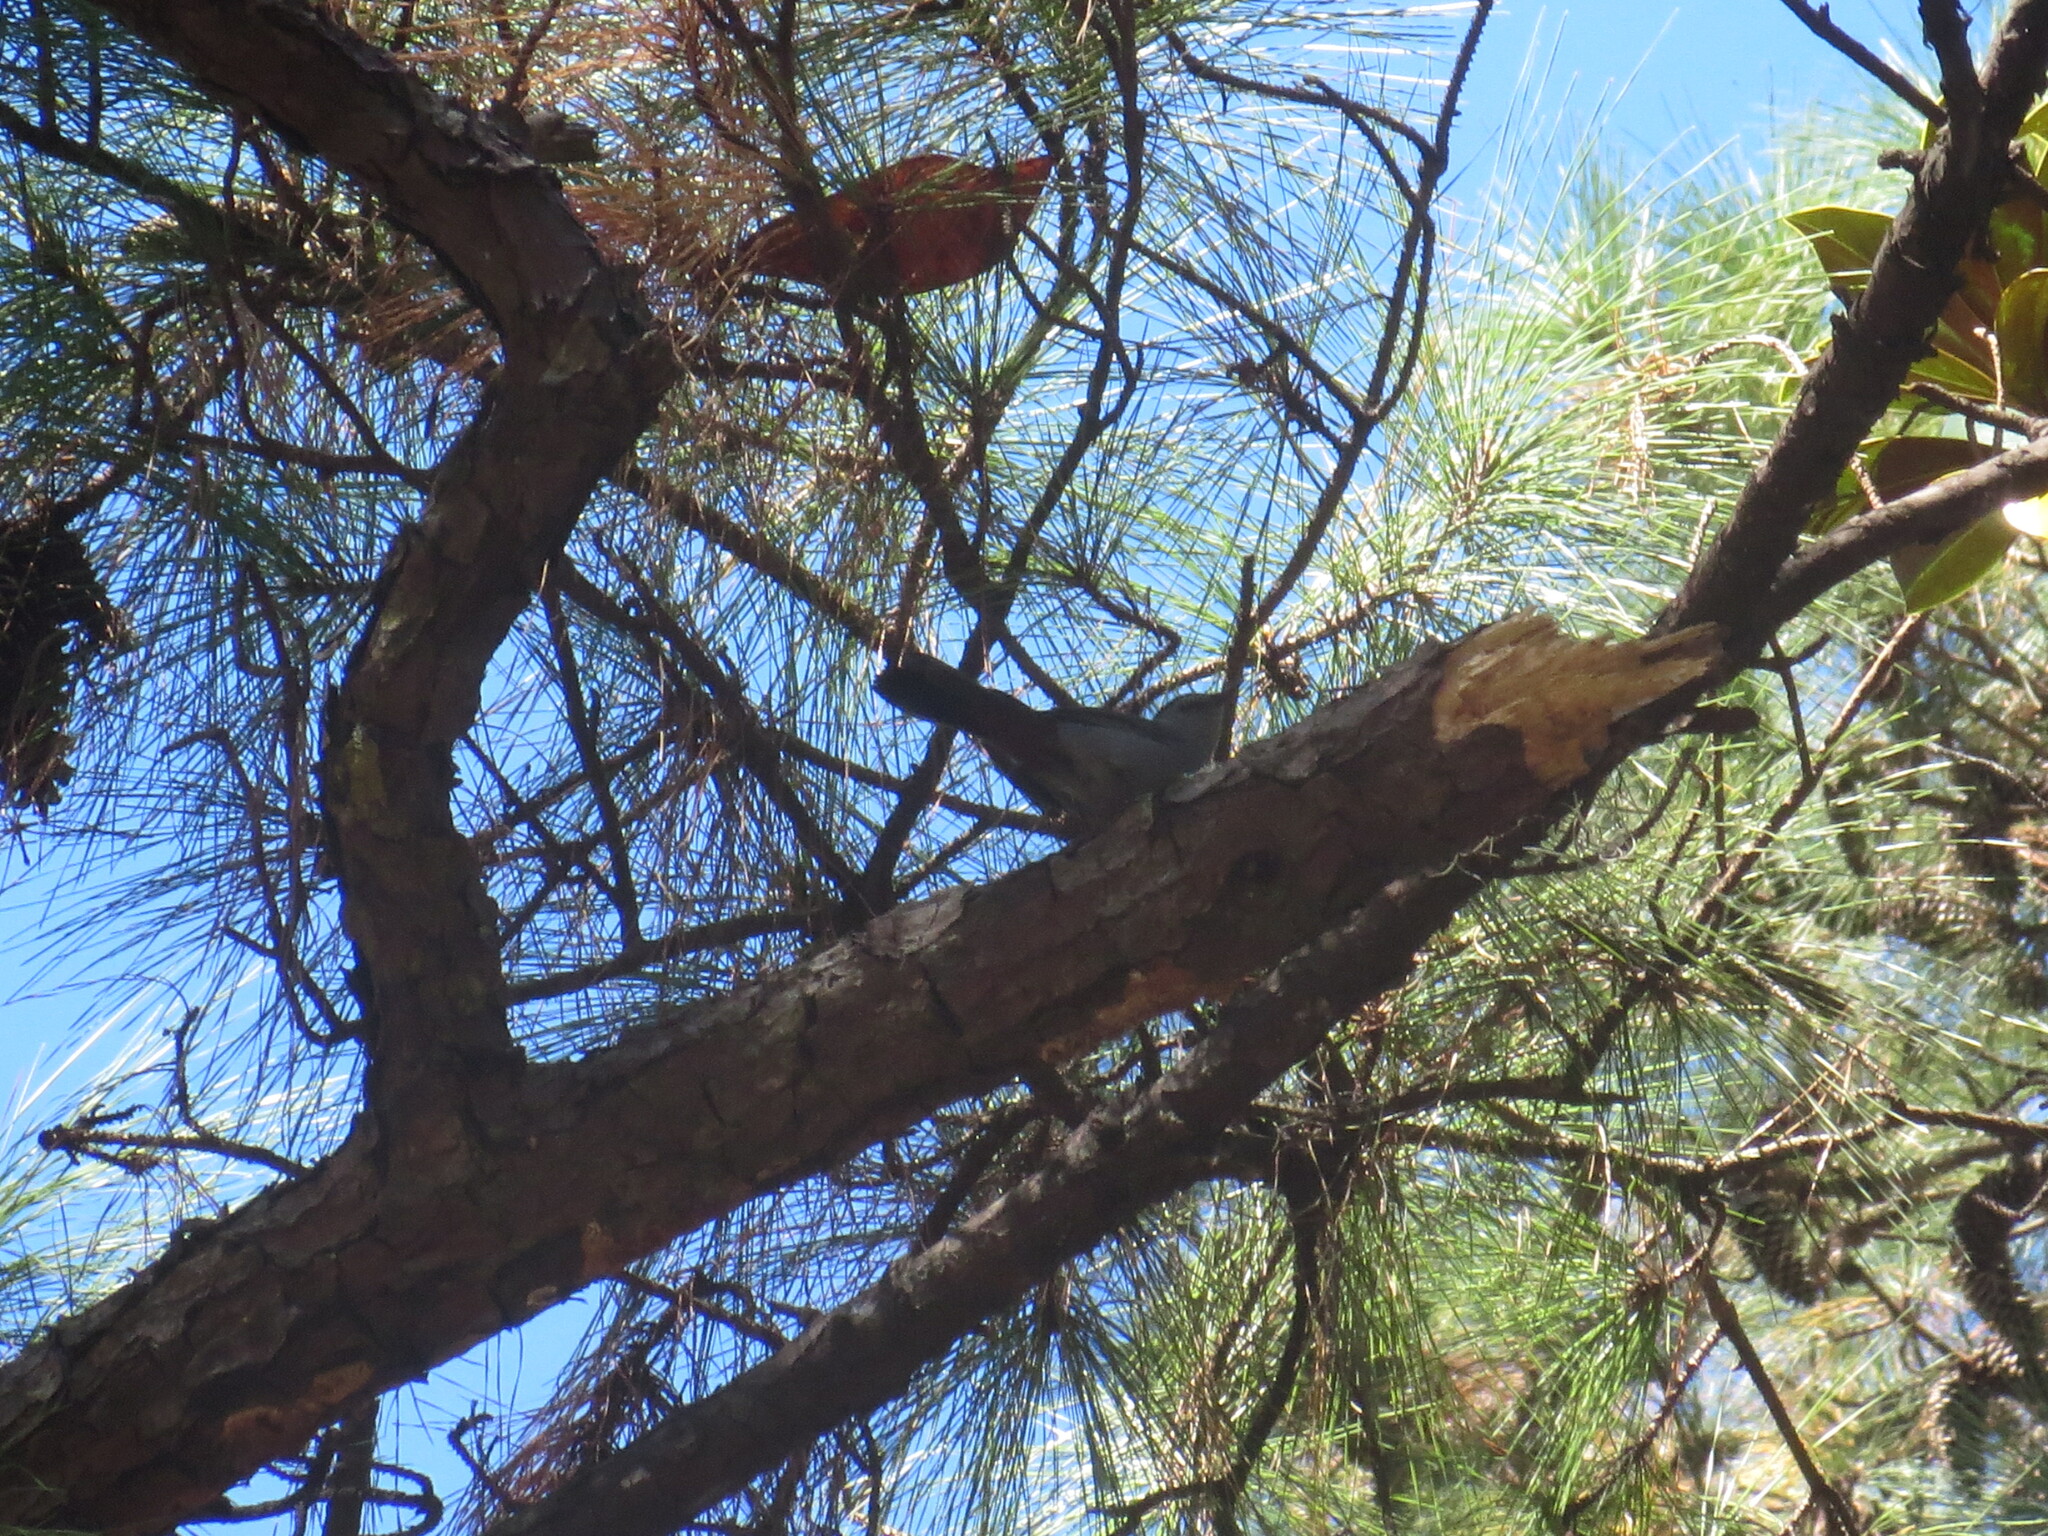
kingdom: Animalia
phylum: Chordata
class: Aves
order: Passeriformes
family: Mimidae
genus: Dumetella
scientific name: Dumetella carolinensis
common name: Gray catbird
